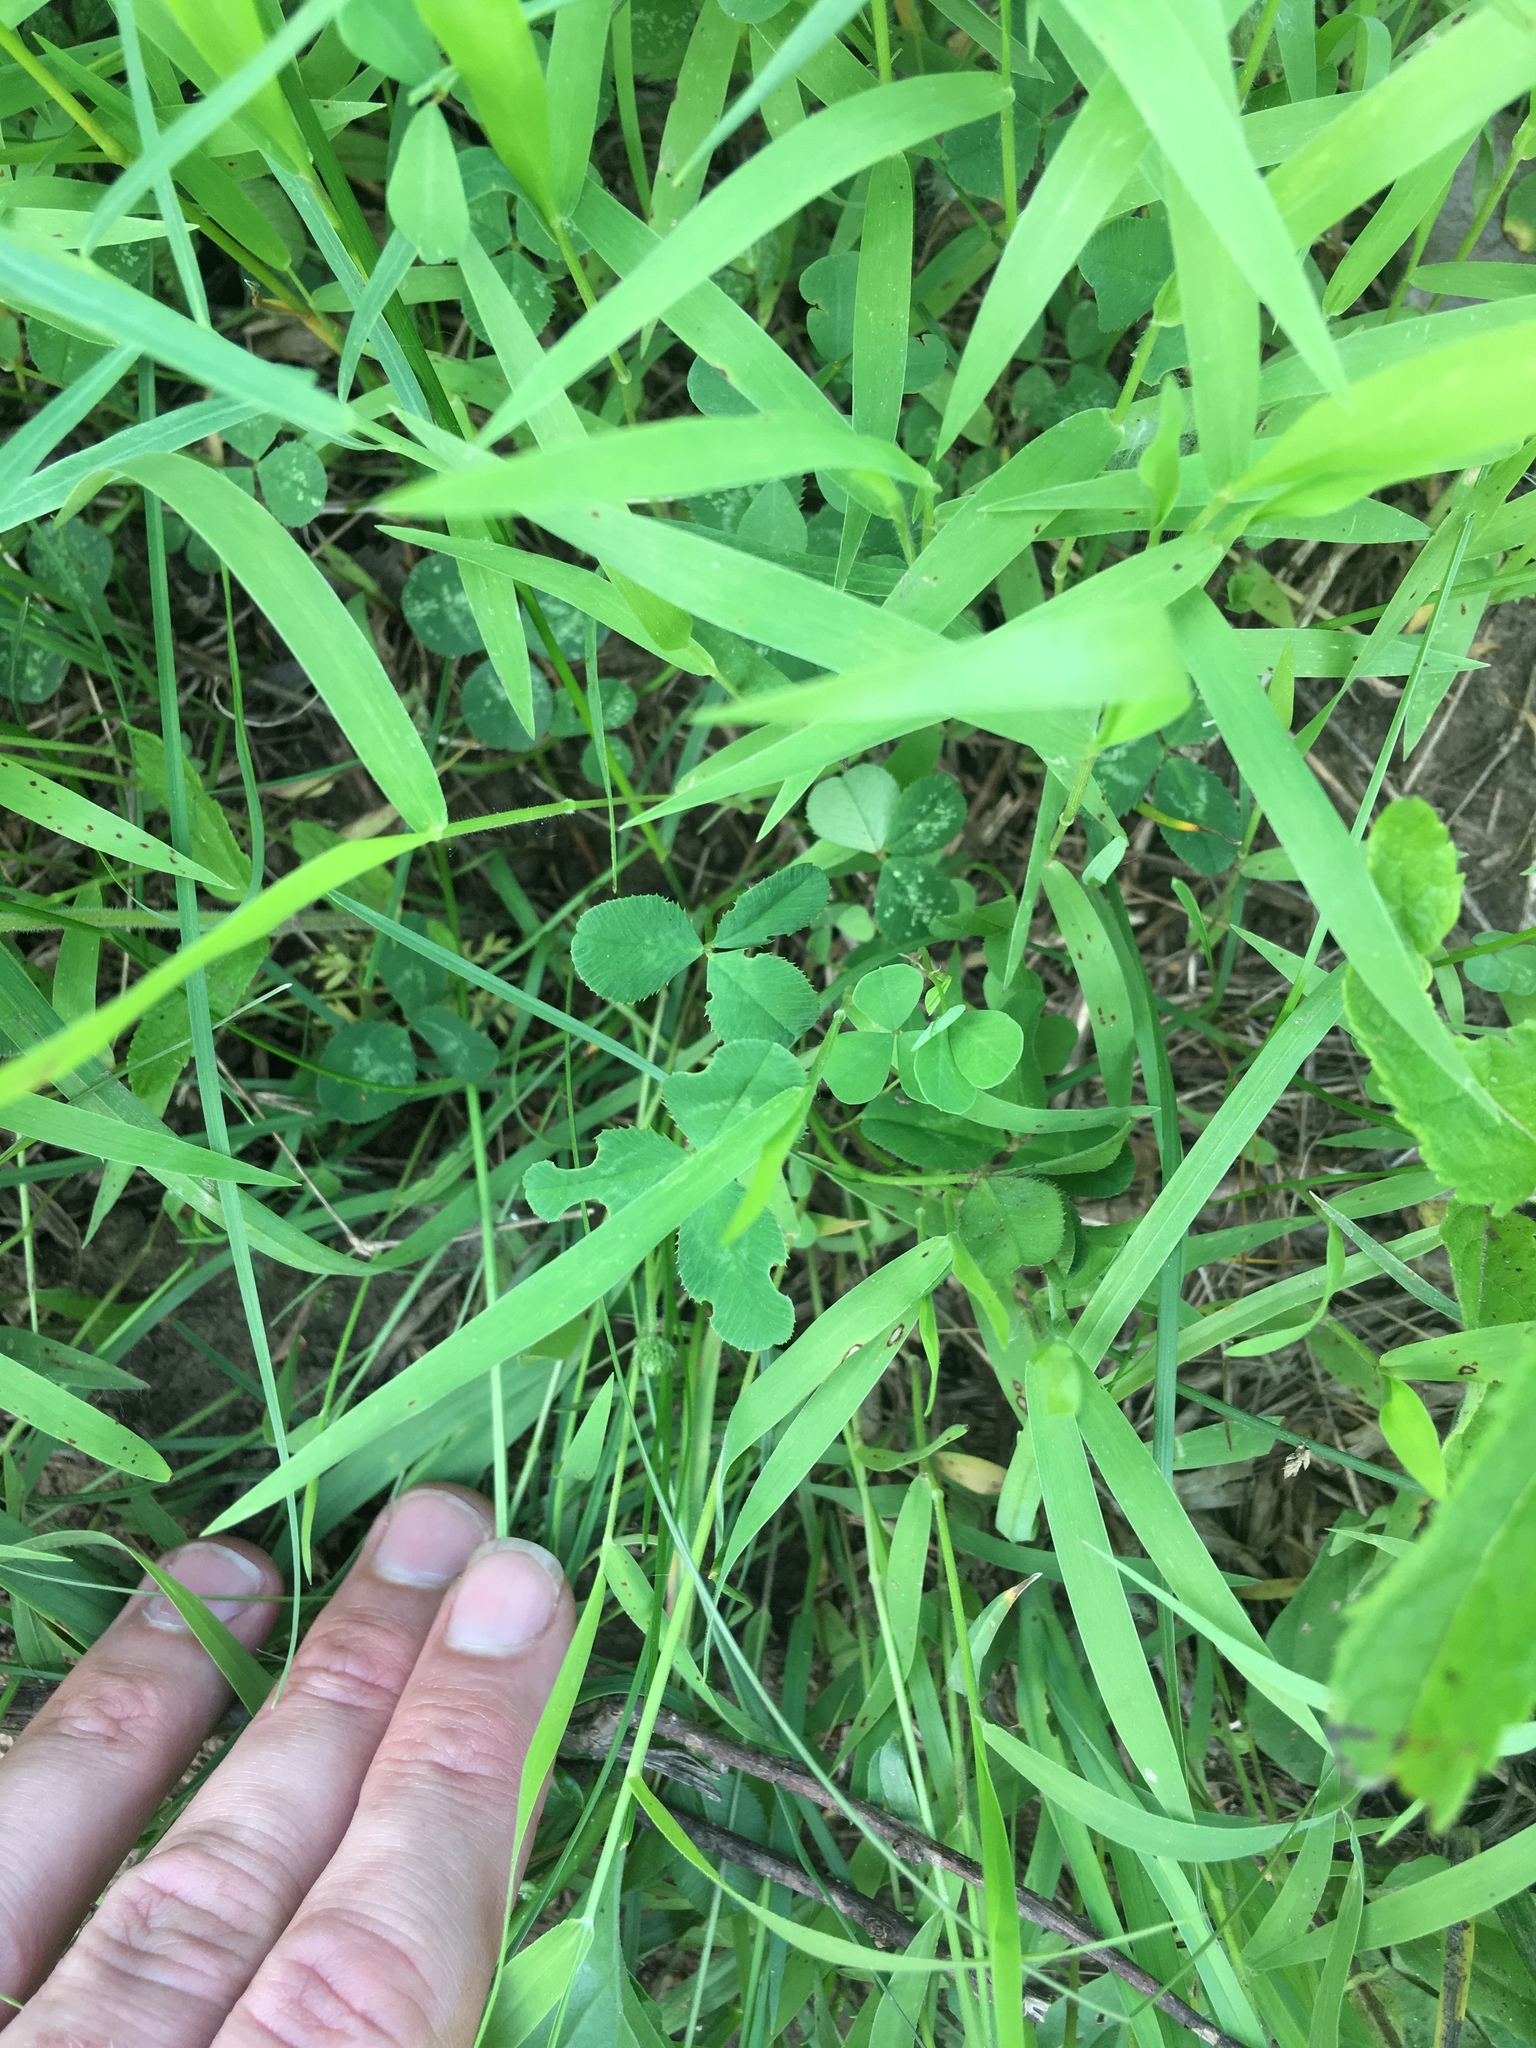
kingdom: Plantae
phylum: Tracheophyta
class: Magnoliopsida
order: Fabales
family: Fabaceae
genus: Trifolium
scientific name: Trifolium repens
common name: White clover
